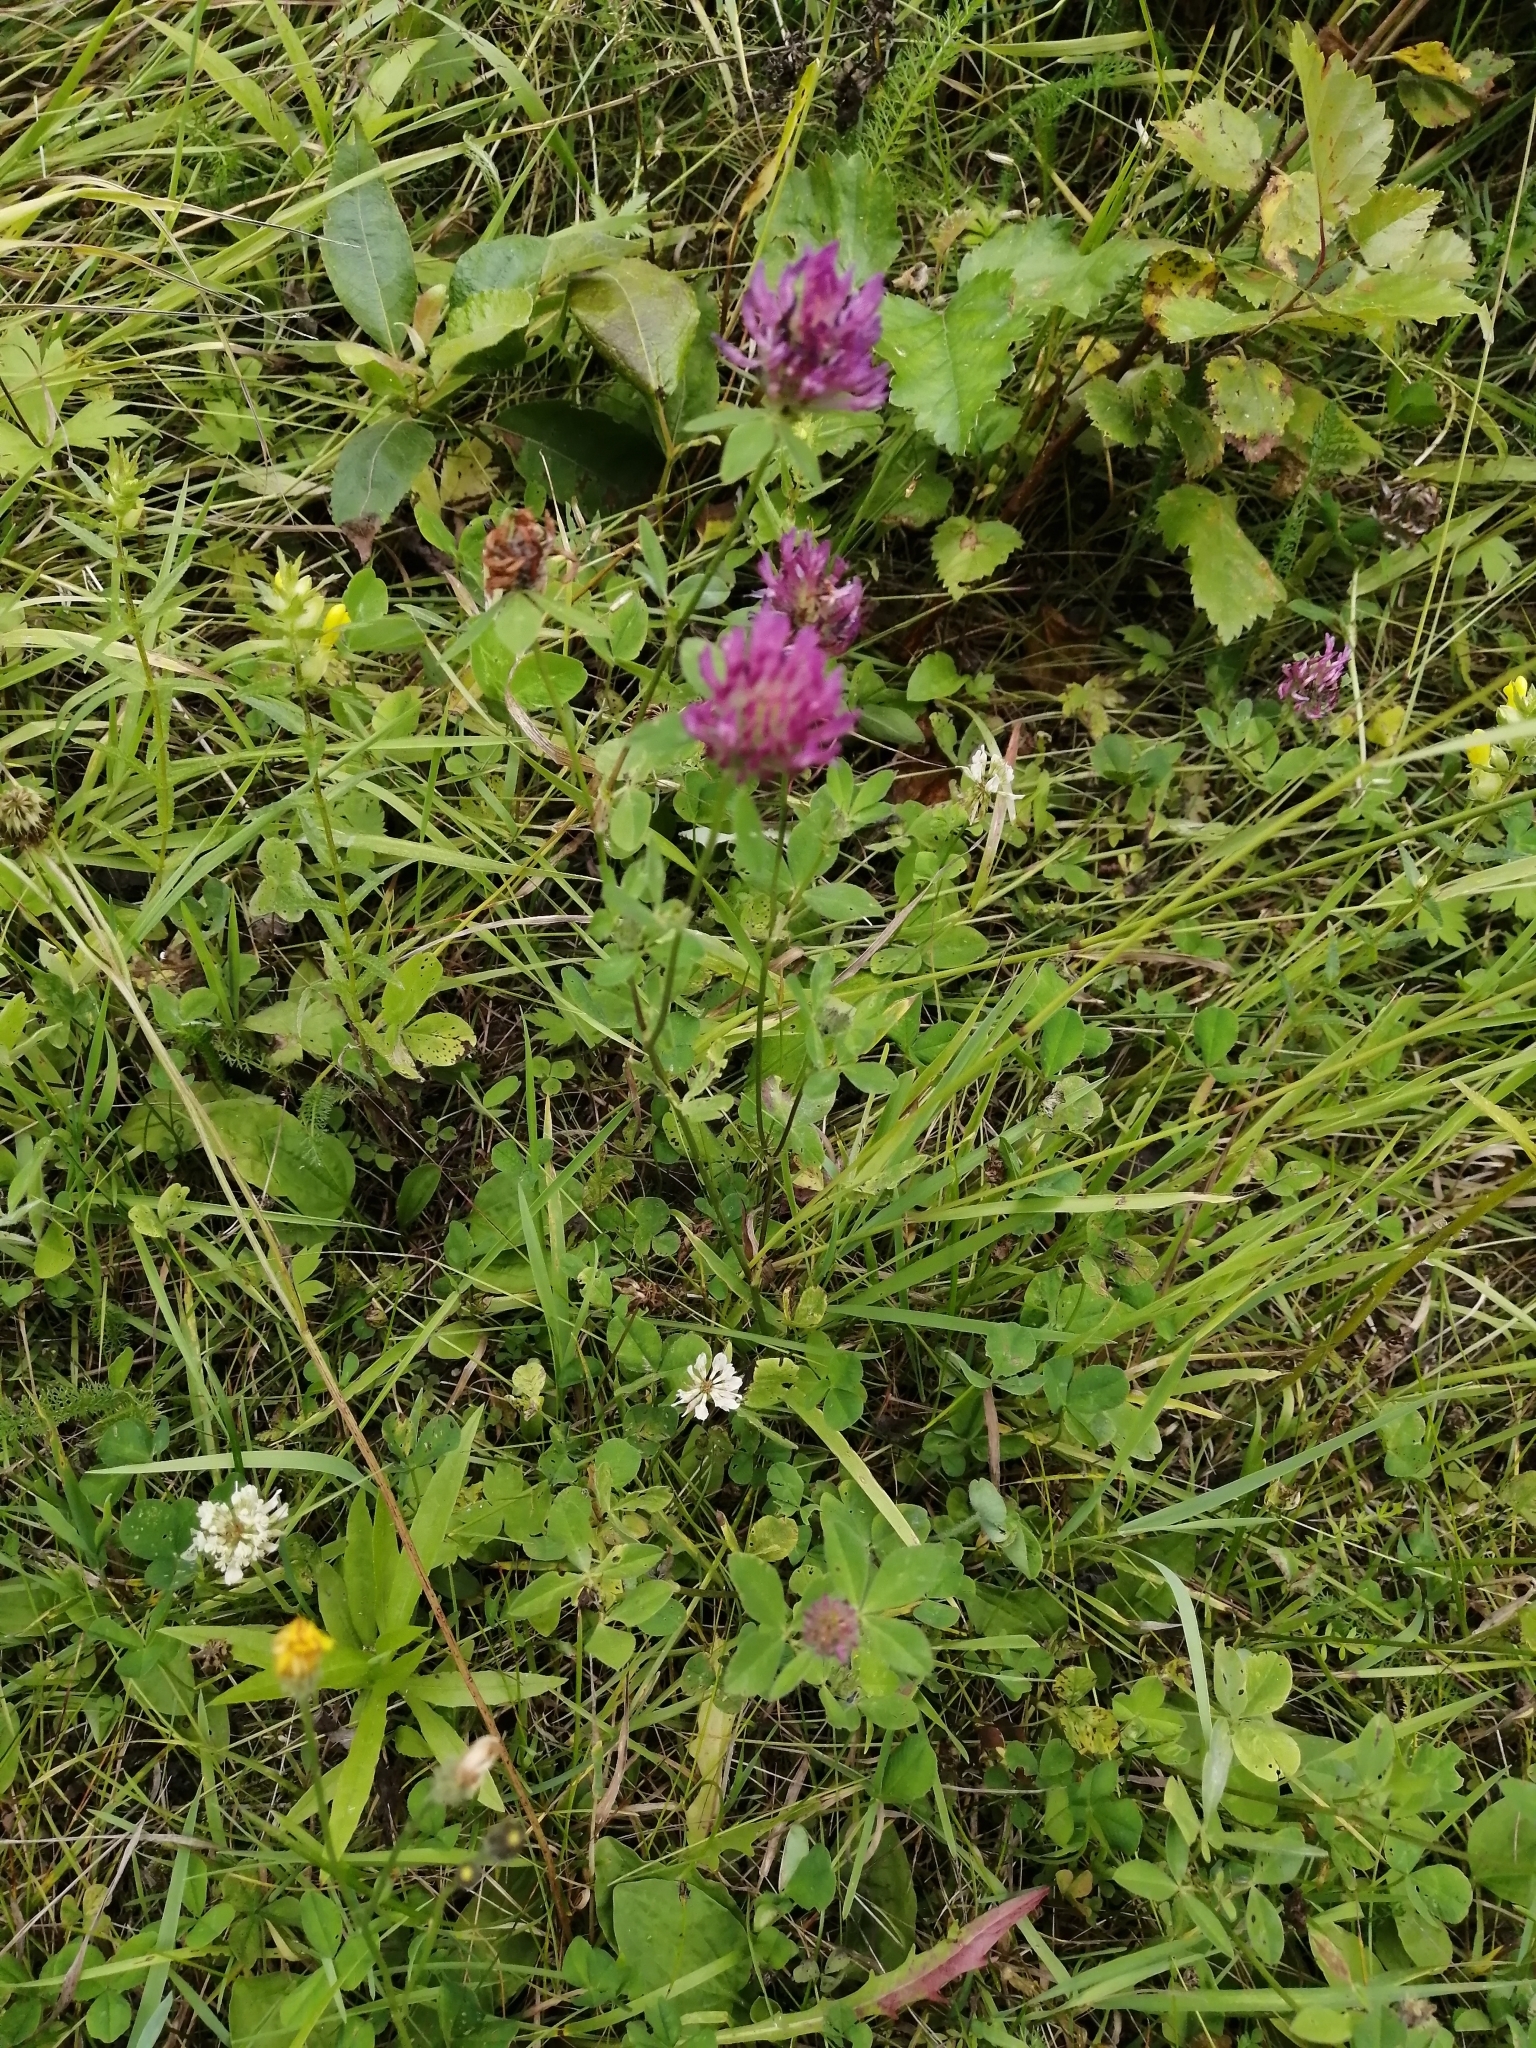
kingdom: Plantae
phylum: Tracheophyta
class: Magnoliopsida
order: Fabales
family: Fabaceae
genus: Trifolium
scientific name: Trifolium pratense
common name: Red clover
